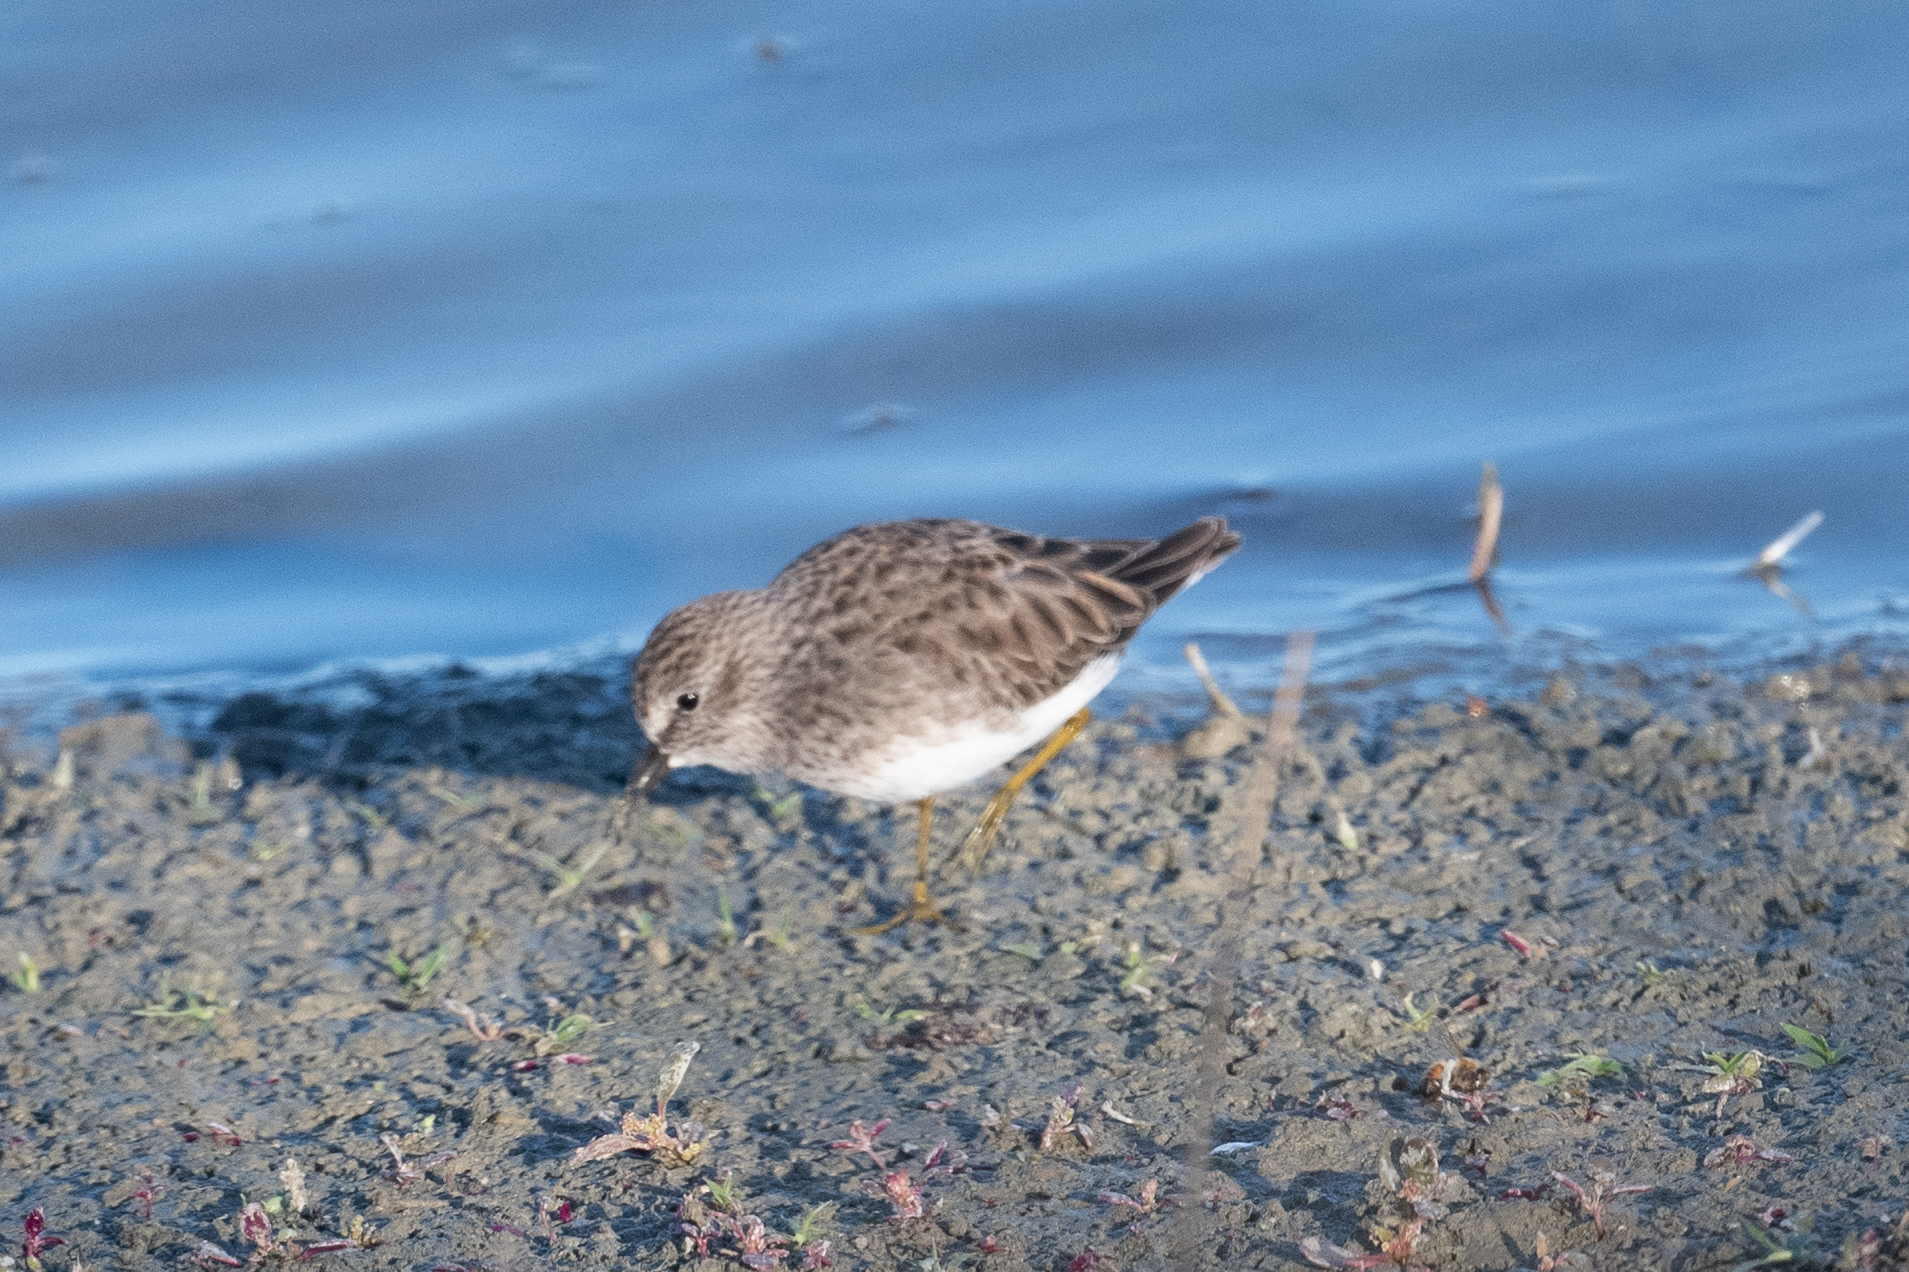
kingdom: Animalia
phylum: Chordata
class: Aves
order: Charadriiformes
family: Scolopacidae
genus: Calidris
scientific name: Calidris minutilla
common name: Least sandpiper
